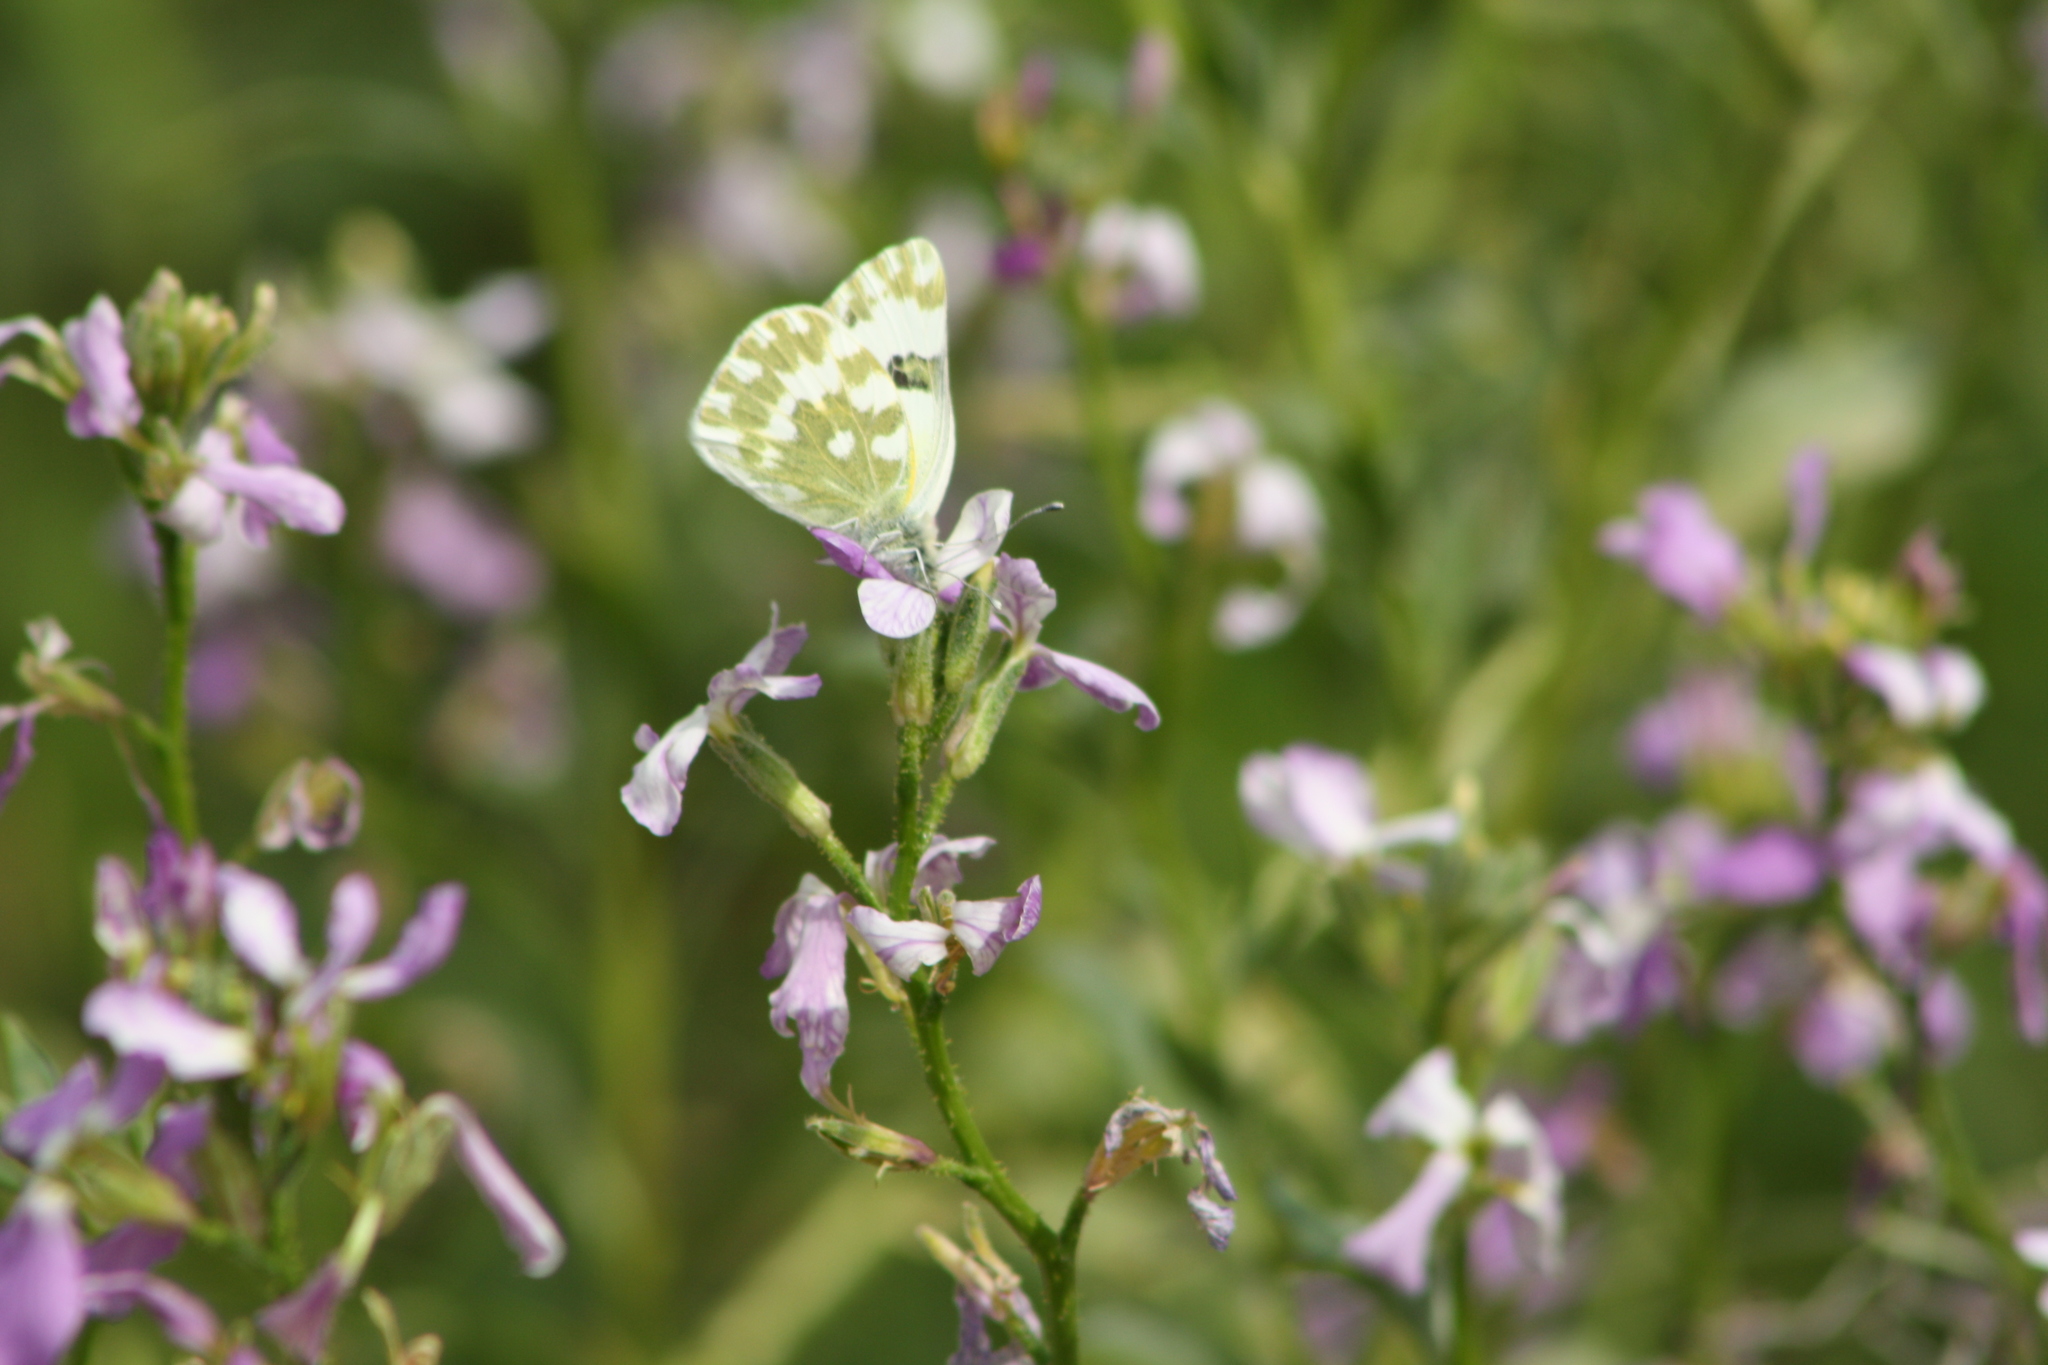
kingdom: Animalia
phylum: Arthropoda
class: Insecta
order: Lepidoptera
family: Pieridae
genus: Pontia
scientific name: Pontia edusa
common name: Eastern bath white
